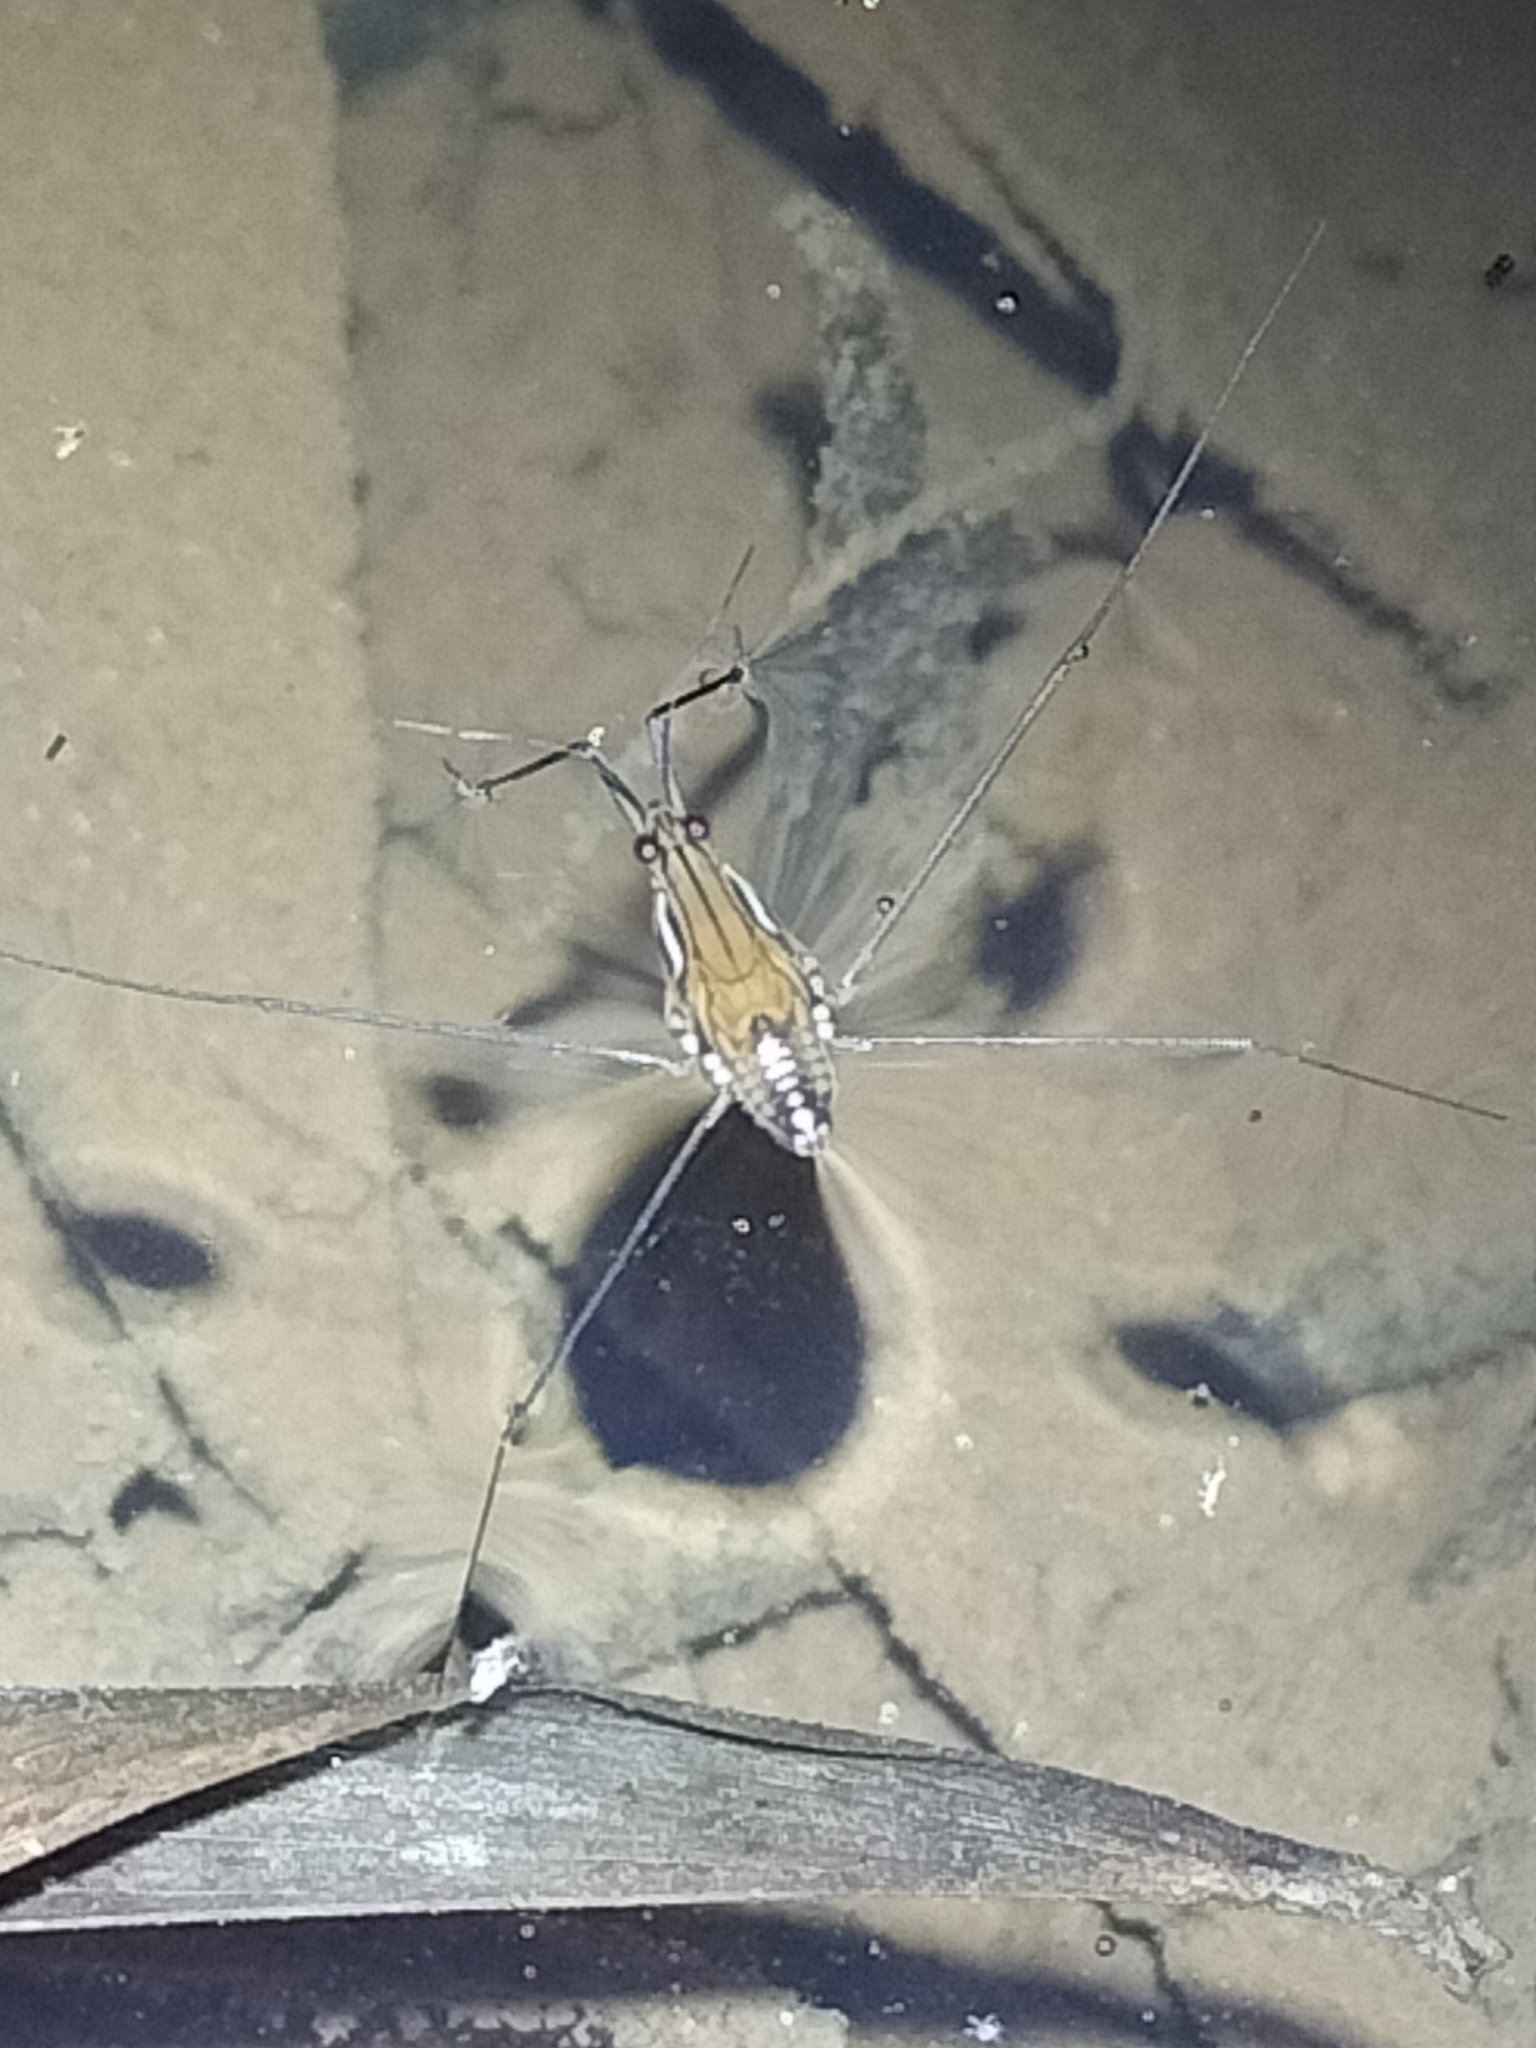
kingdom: Animalia
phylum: Arthropoda
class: Insecta
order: Hemiptera
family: Gerridae
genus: Tenagogerris
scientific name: Tenagogerris
